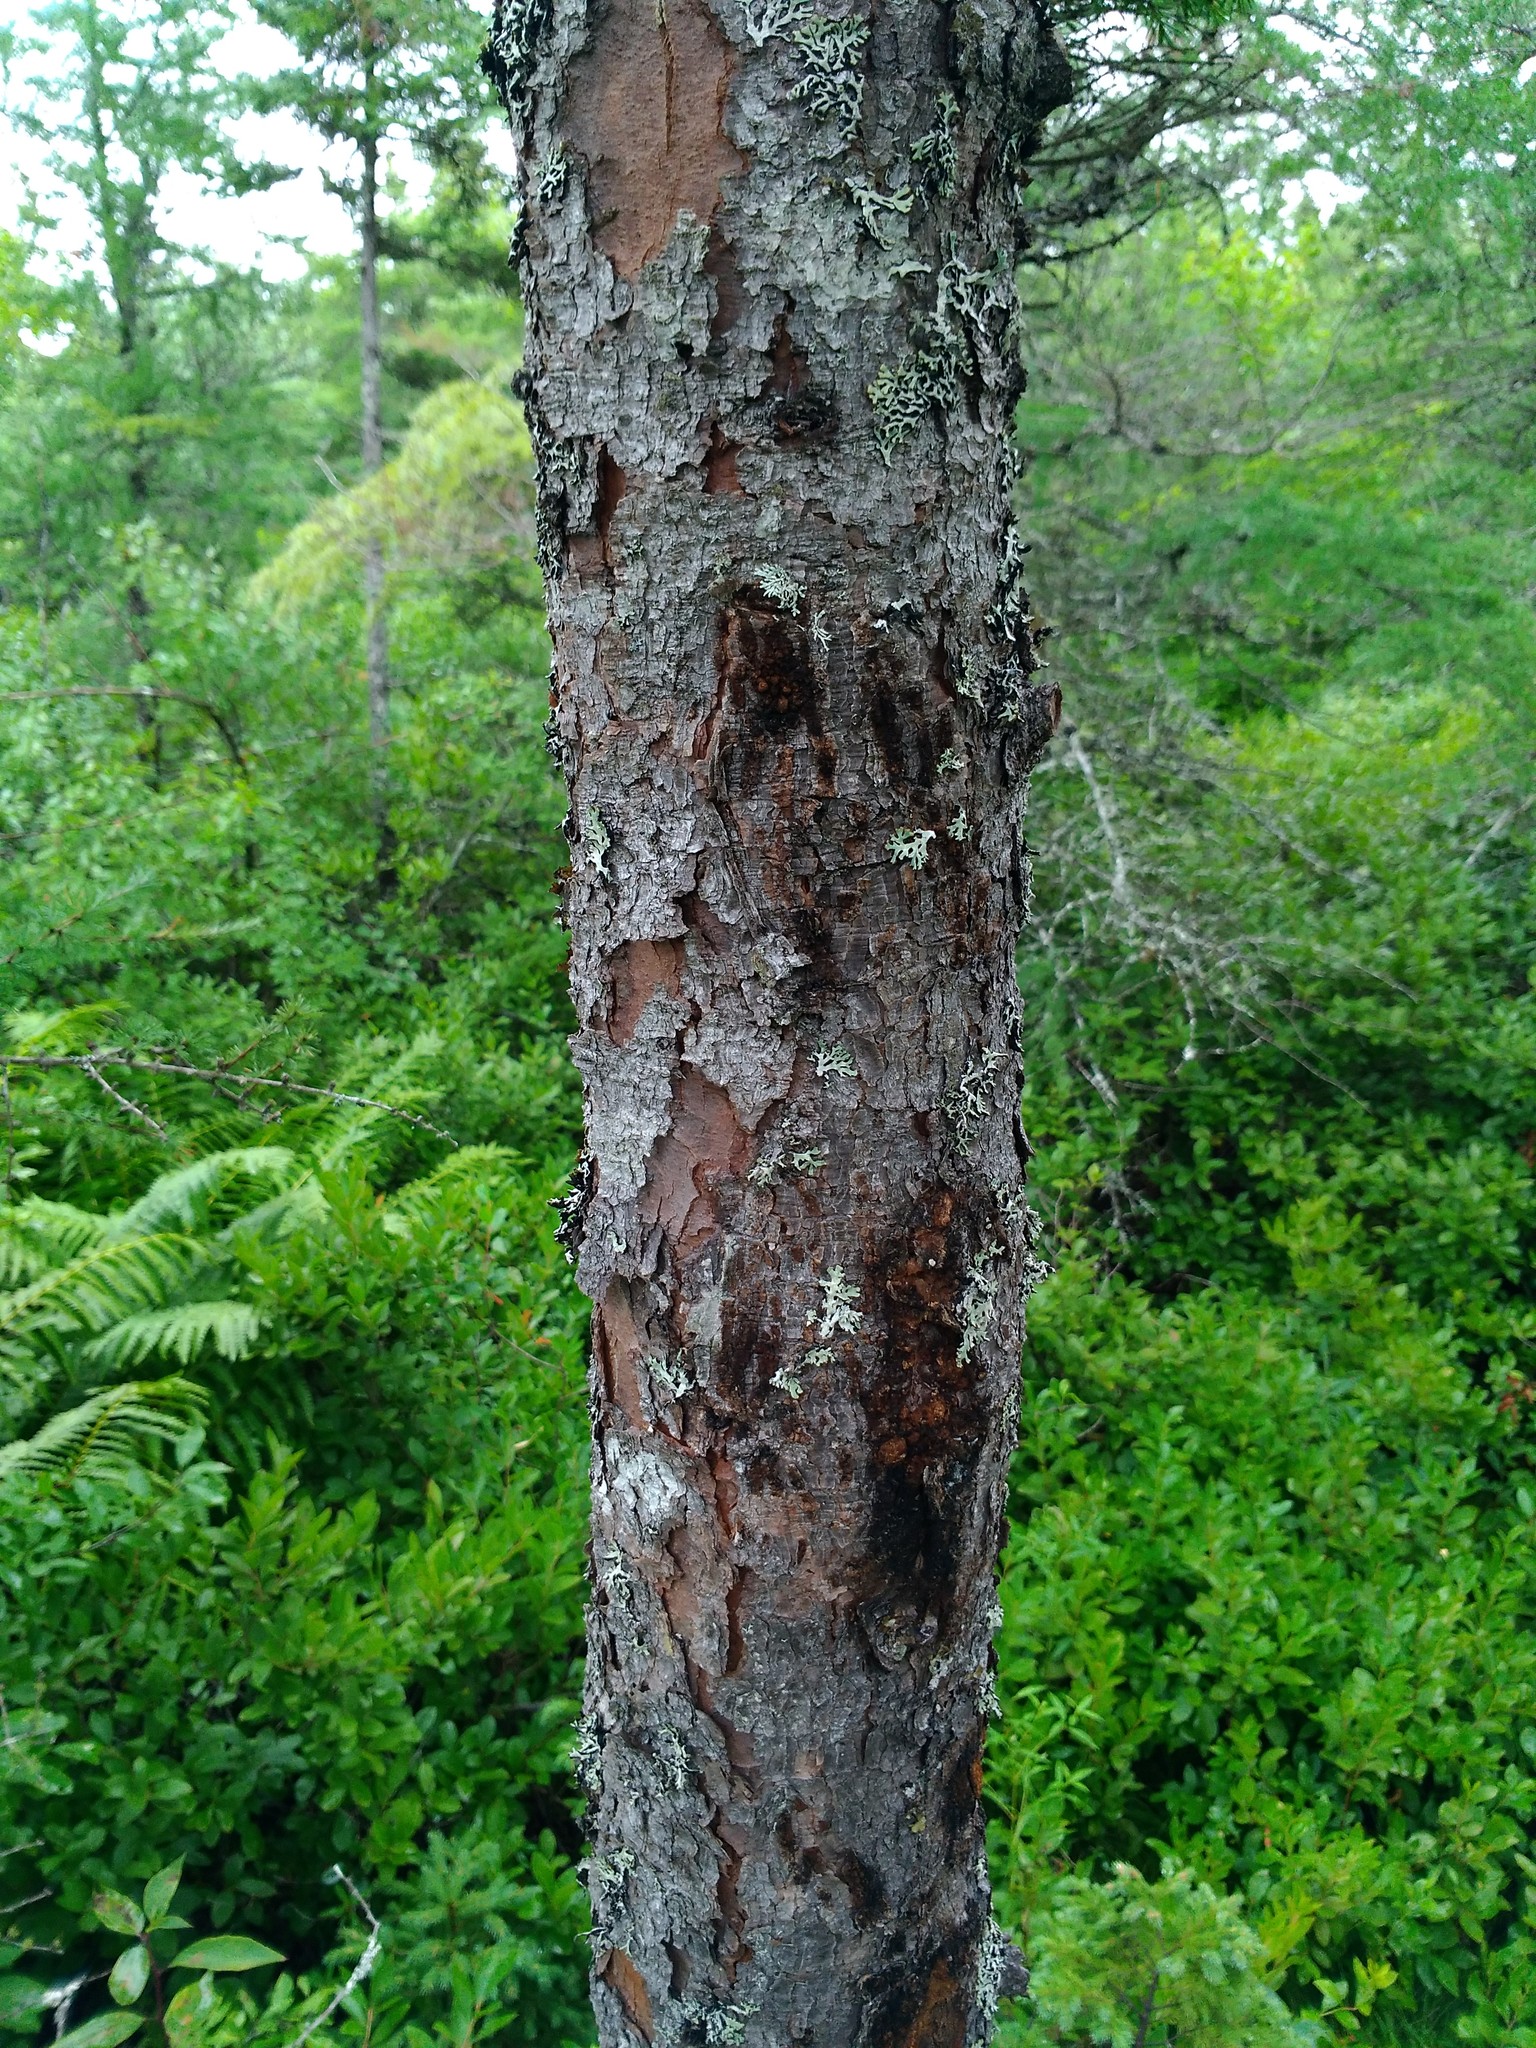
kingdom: Plantae
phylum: Tracheophyta
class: Pinopsida
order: Pinales
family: Pinaceae
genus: Picea
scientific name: Picea mariana
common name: Black spruce
